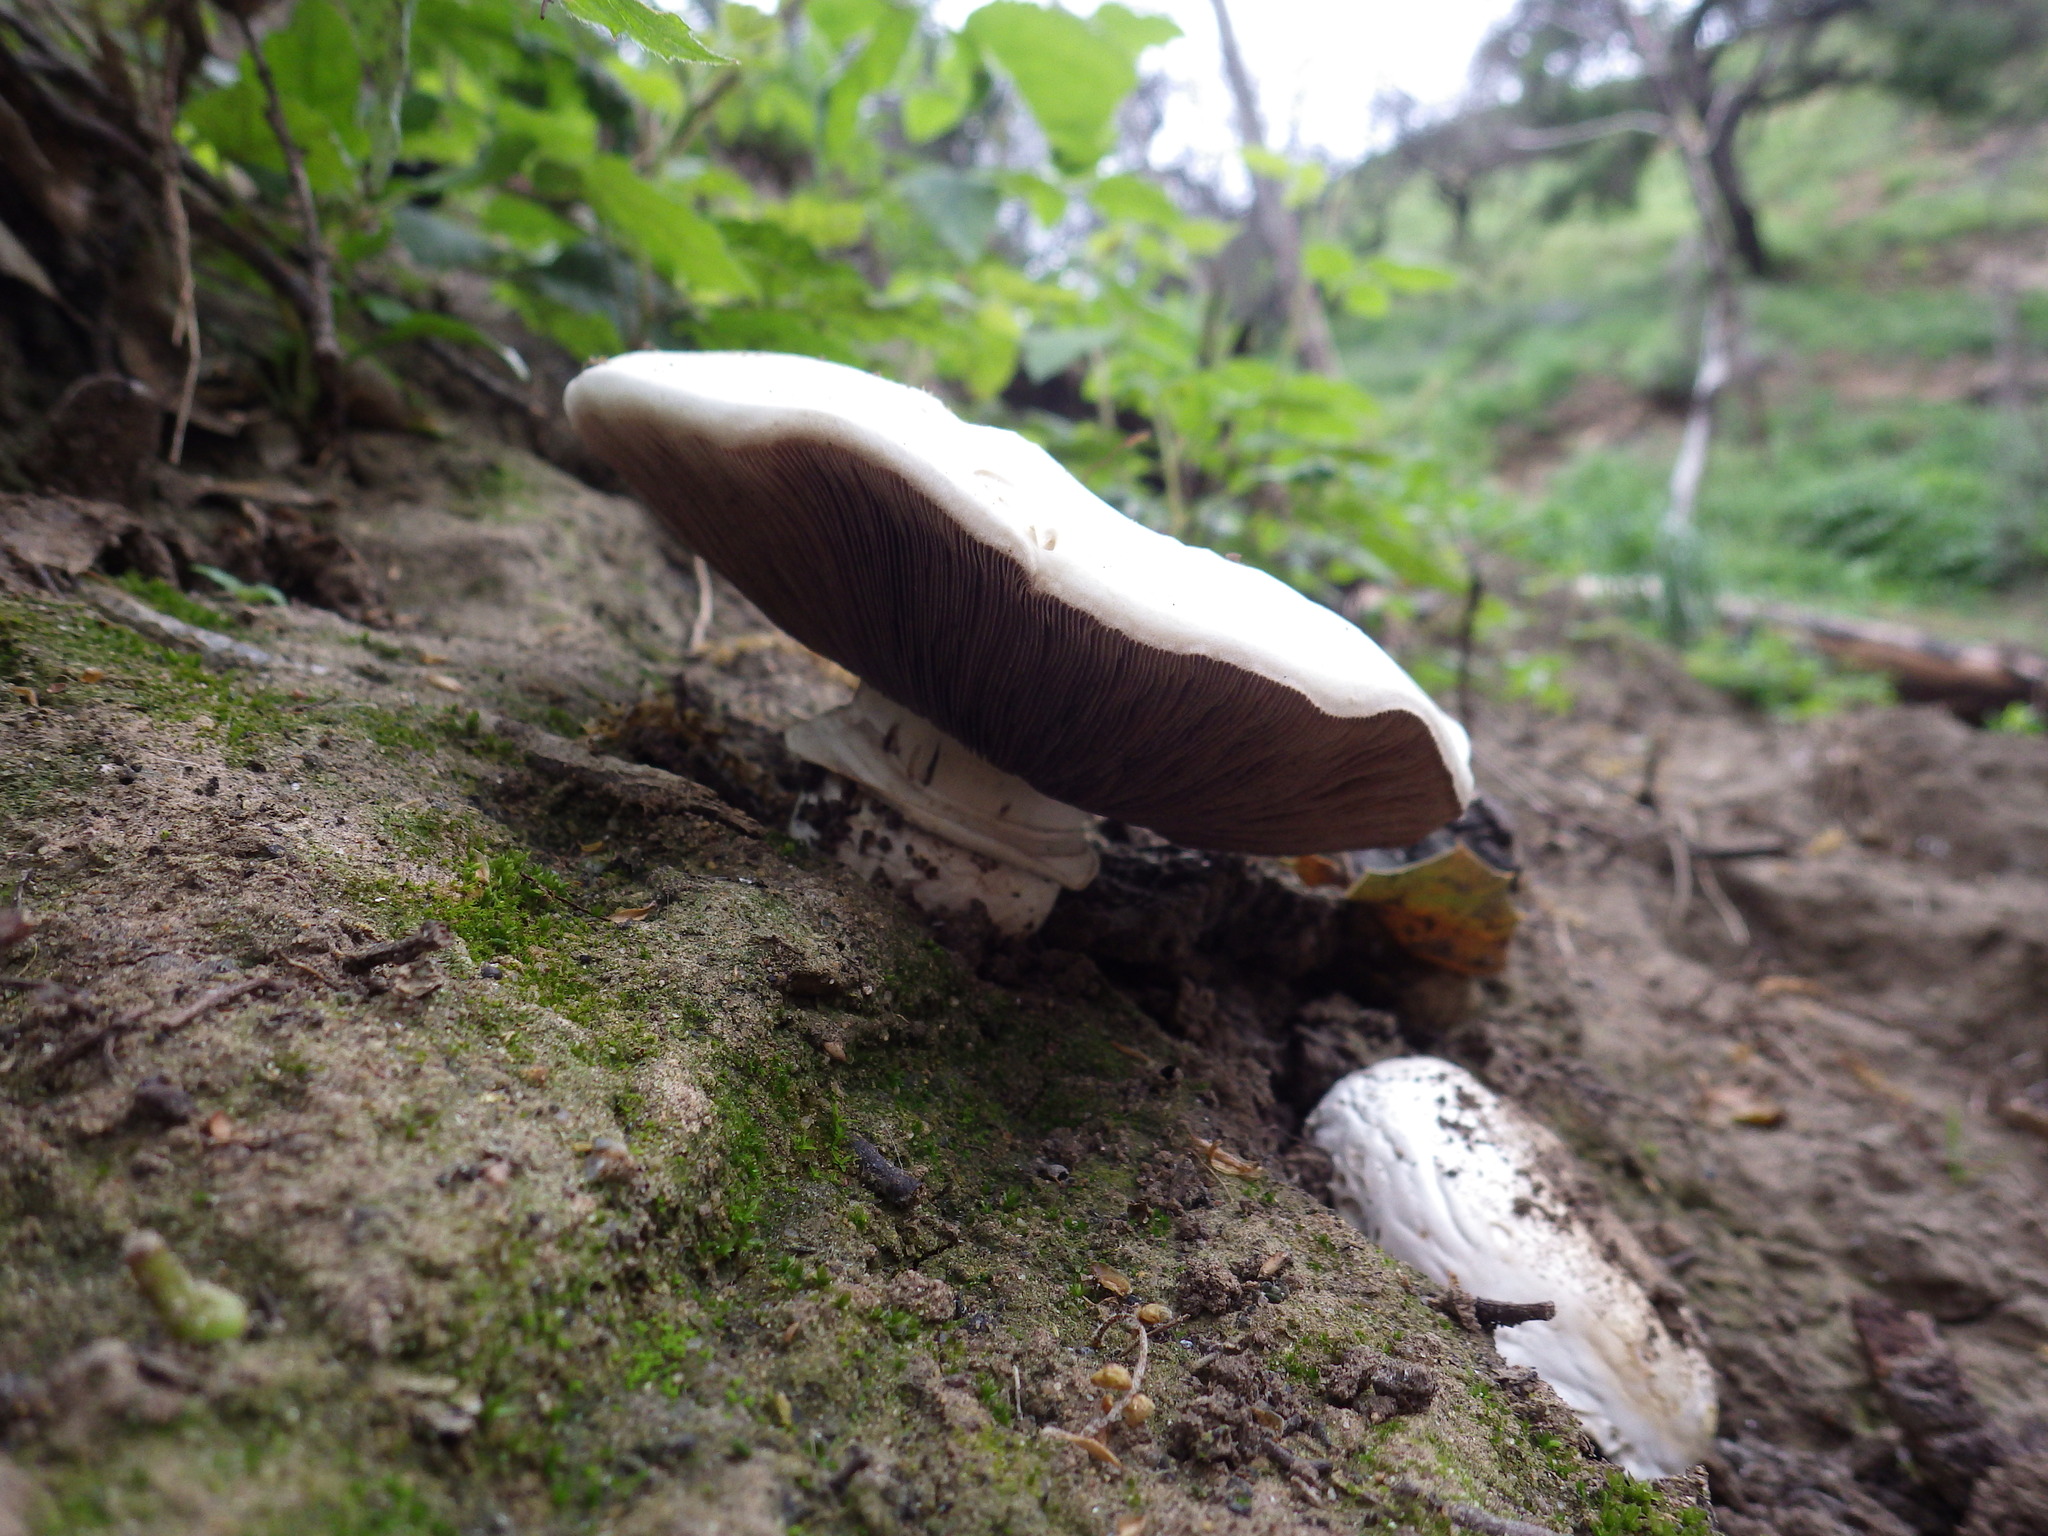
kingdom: Fungi
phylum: Basidiomycota
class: Agaricomycetes
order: Agaricales
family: Agaricaceae
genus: Agaricus
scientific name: Agaricus bernardii
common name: Salty mushroom
